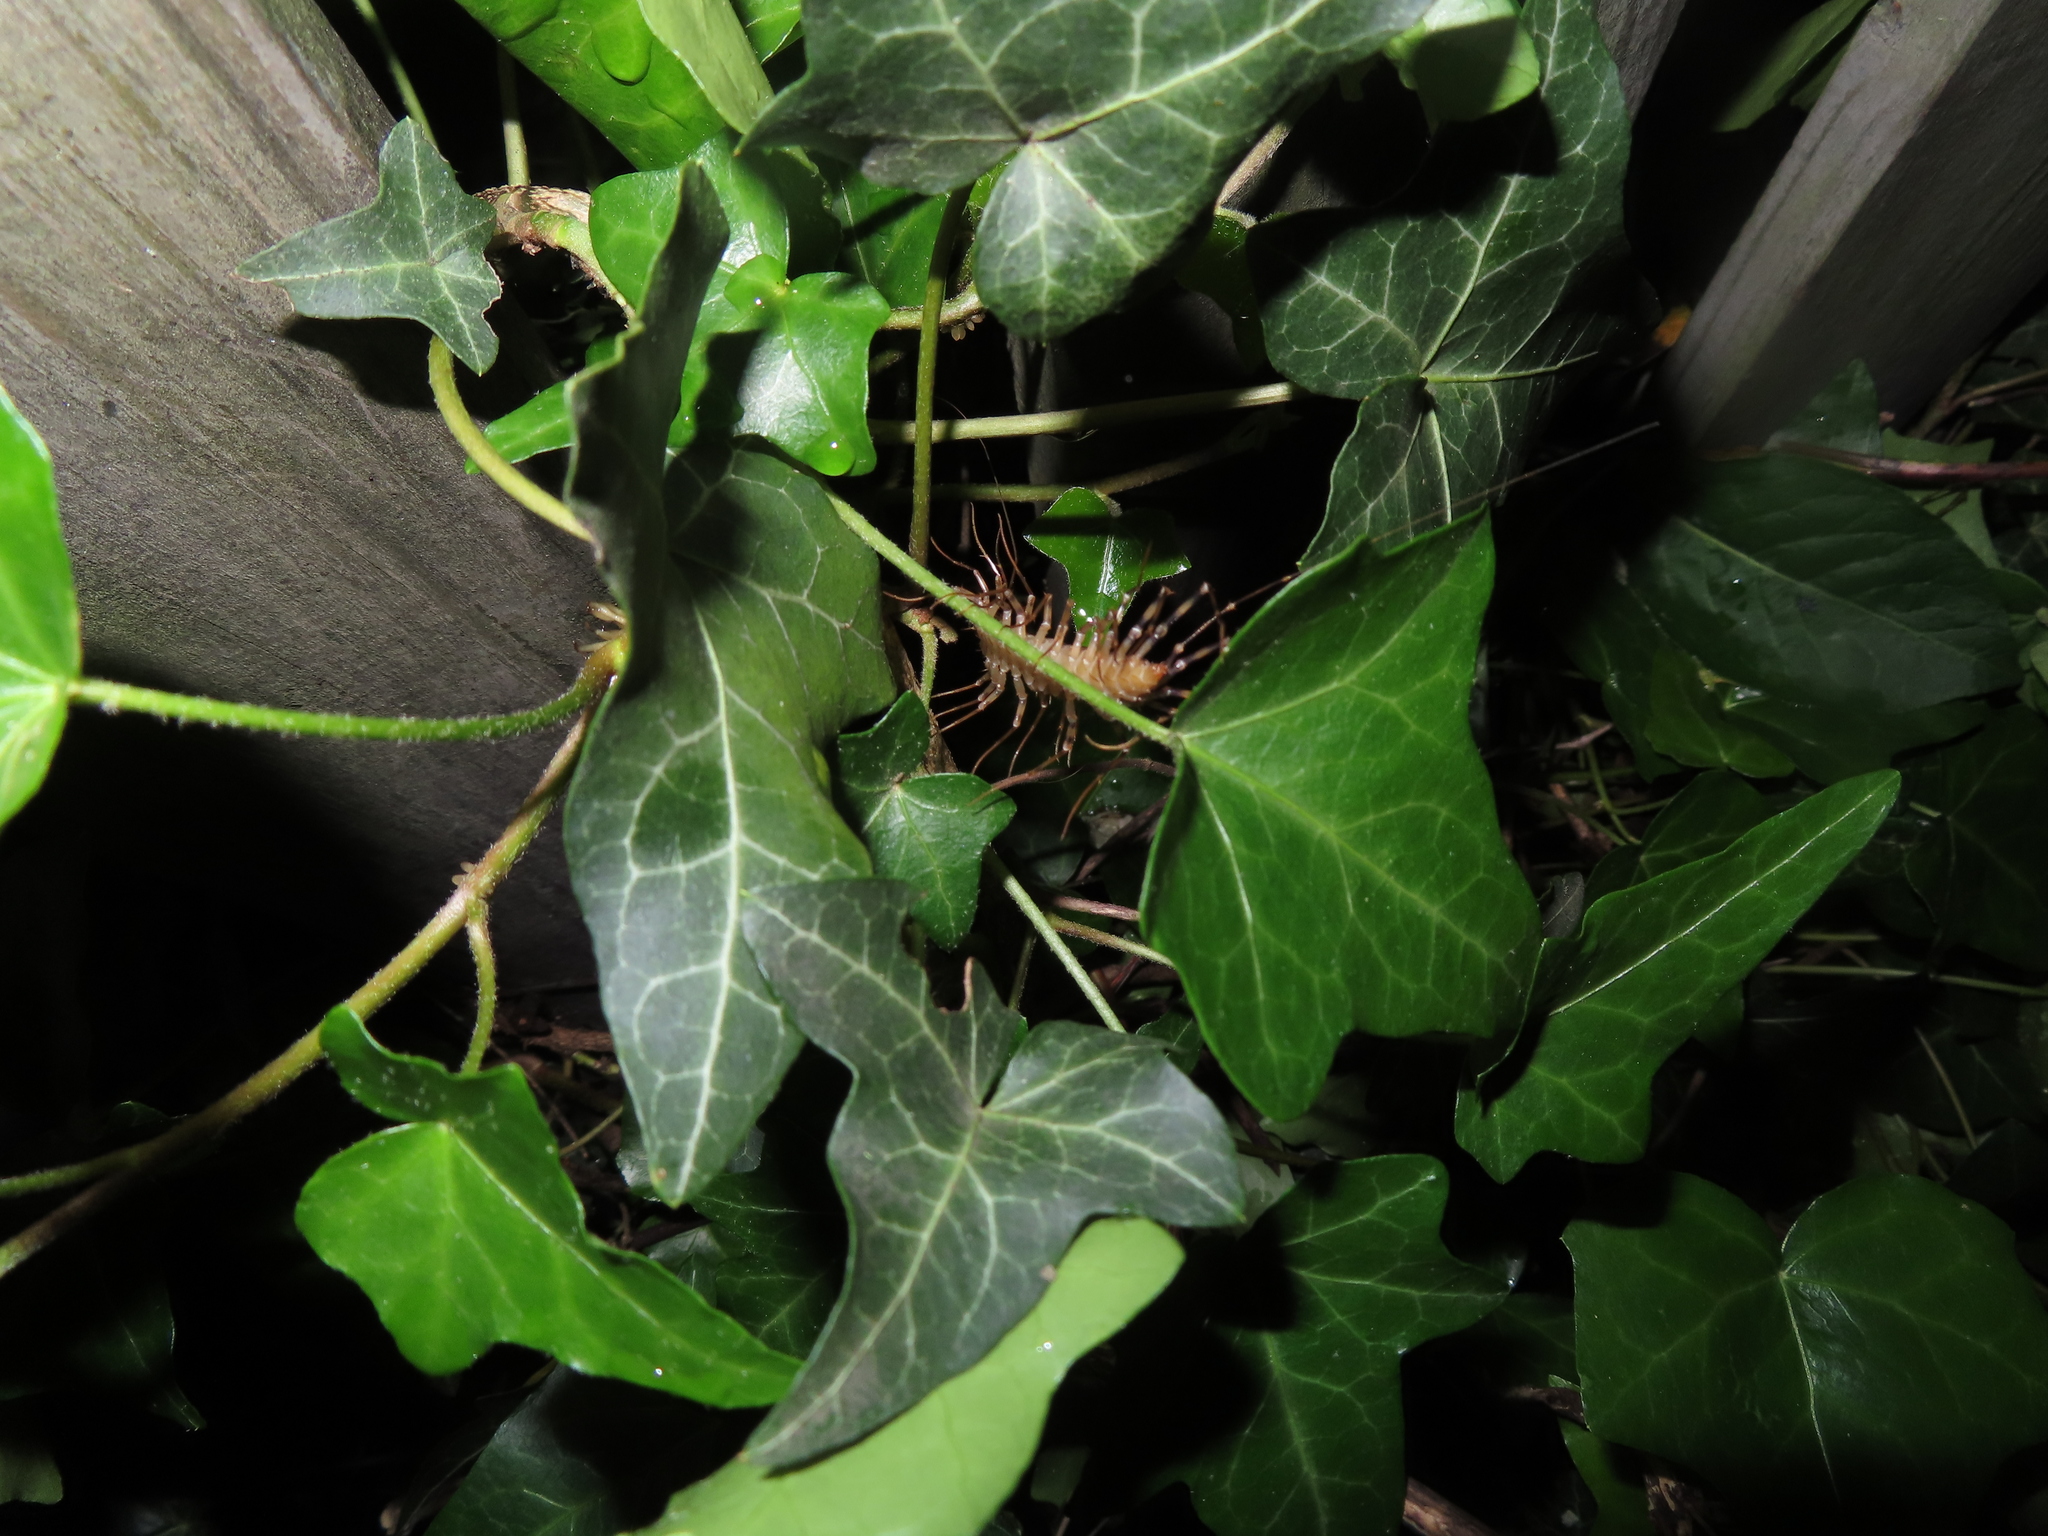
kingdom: Animalia
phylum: Arthropoda
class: Chilopoda
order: Scutigeromorpha
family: Scutigeridae
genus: Scutigera
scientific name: Scutigera coleoptrata
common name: House centipede
